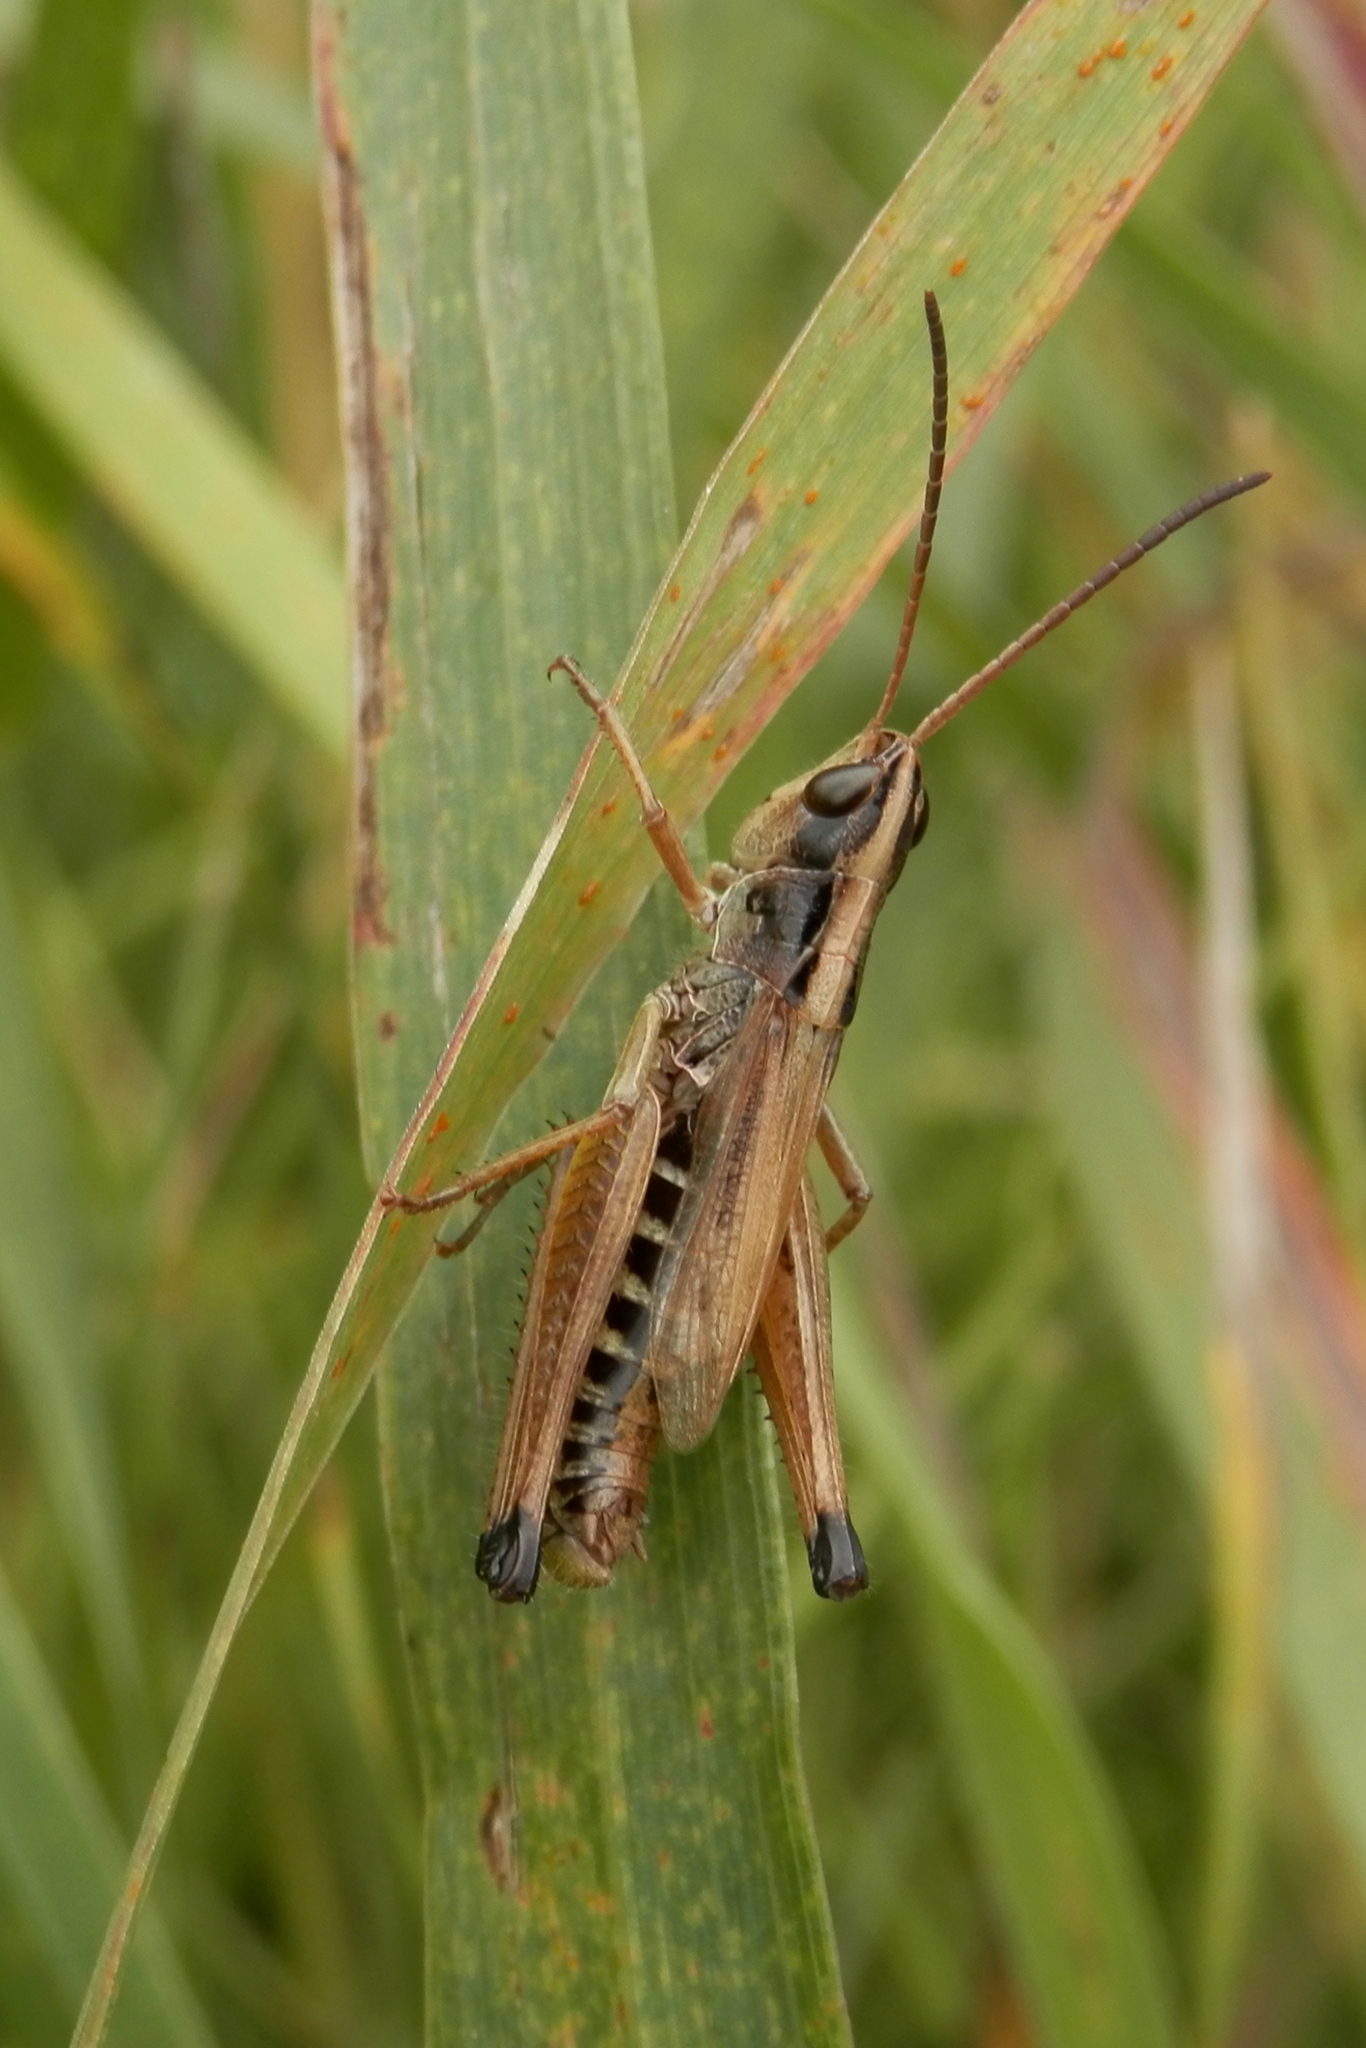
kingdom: Animalia
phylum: Arthropoda
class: Insecta
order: Orthoptera
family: Acrididae
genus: Pseudochorthippus
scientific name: Pseudochorthippus curtipennis
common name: Marsh meadow grasshopper
